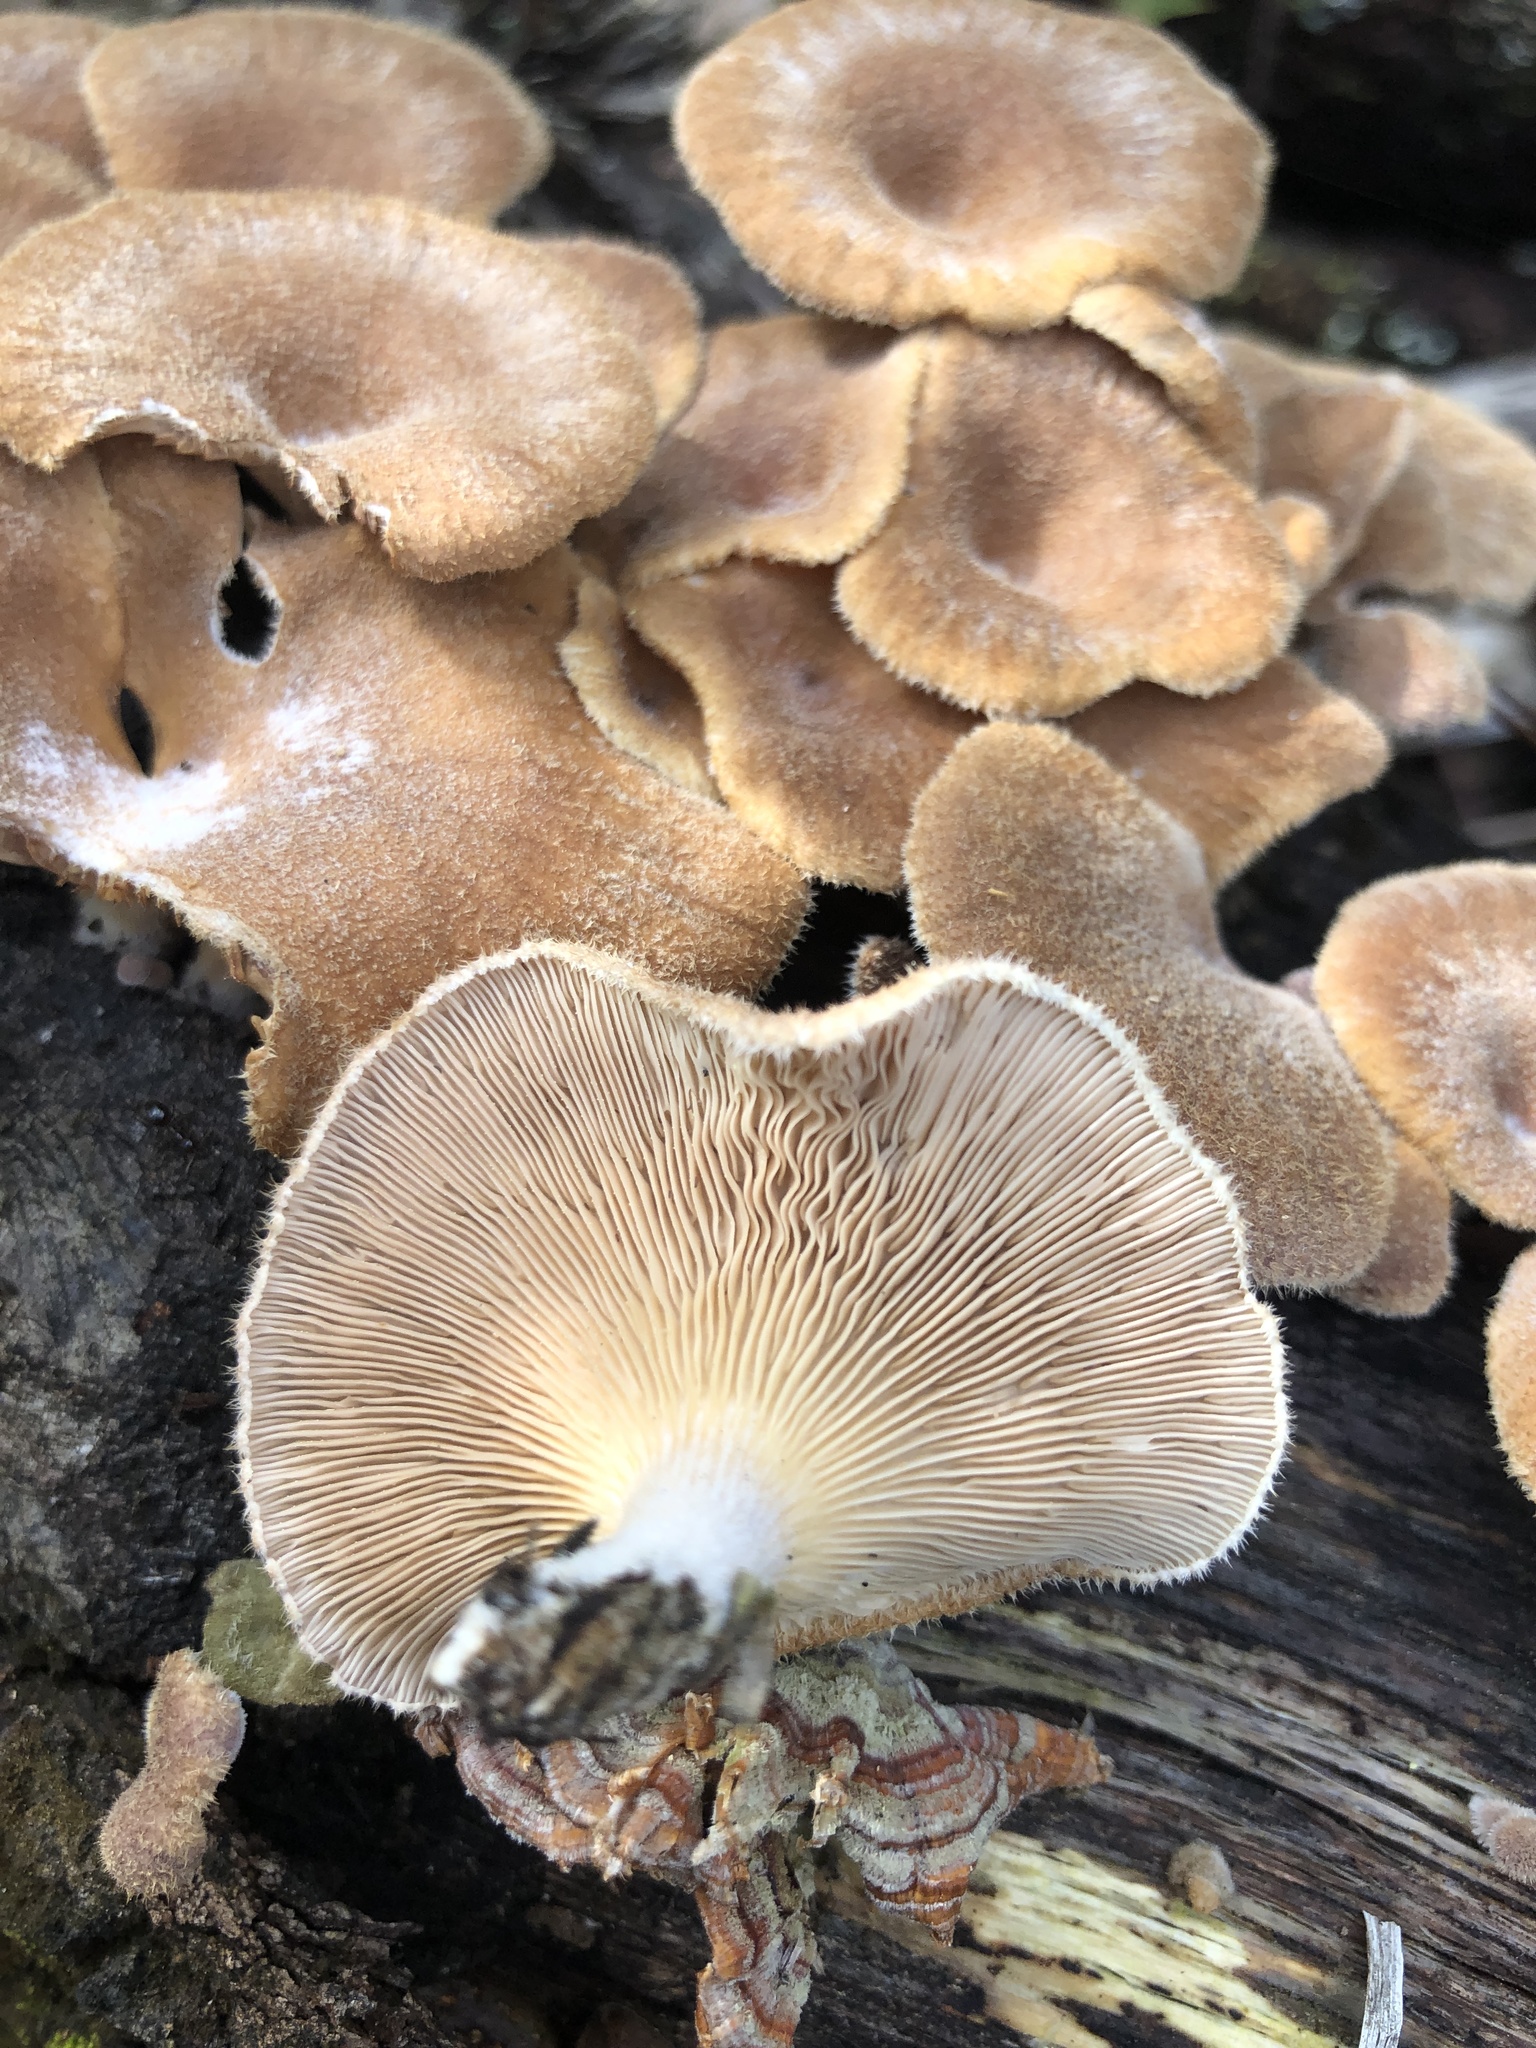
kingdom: Fungi
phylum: Basidiomycota
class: Agaricomycetes
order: Polyporales
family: Panaceae
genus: Panus
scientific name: Panus neostrigosus
